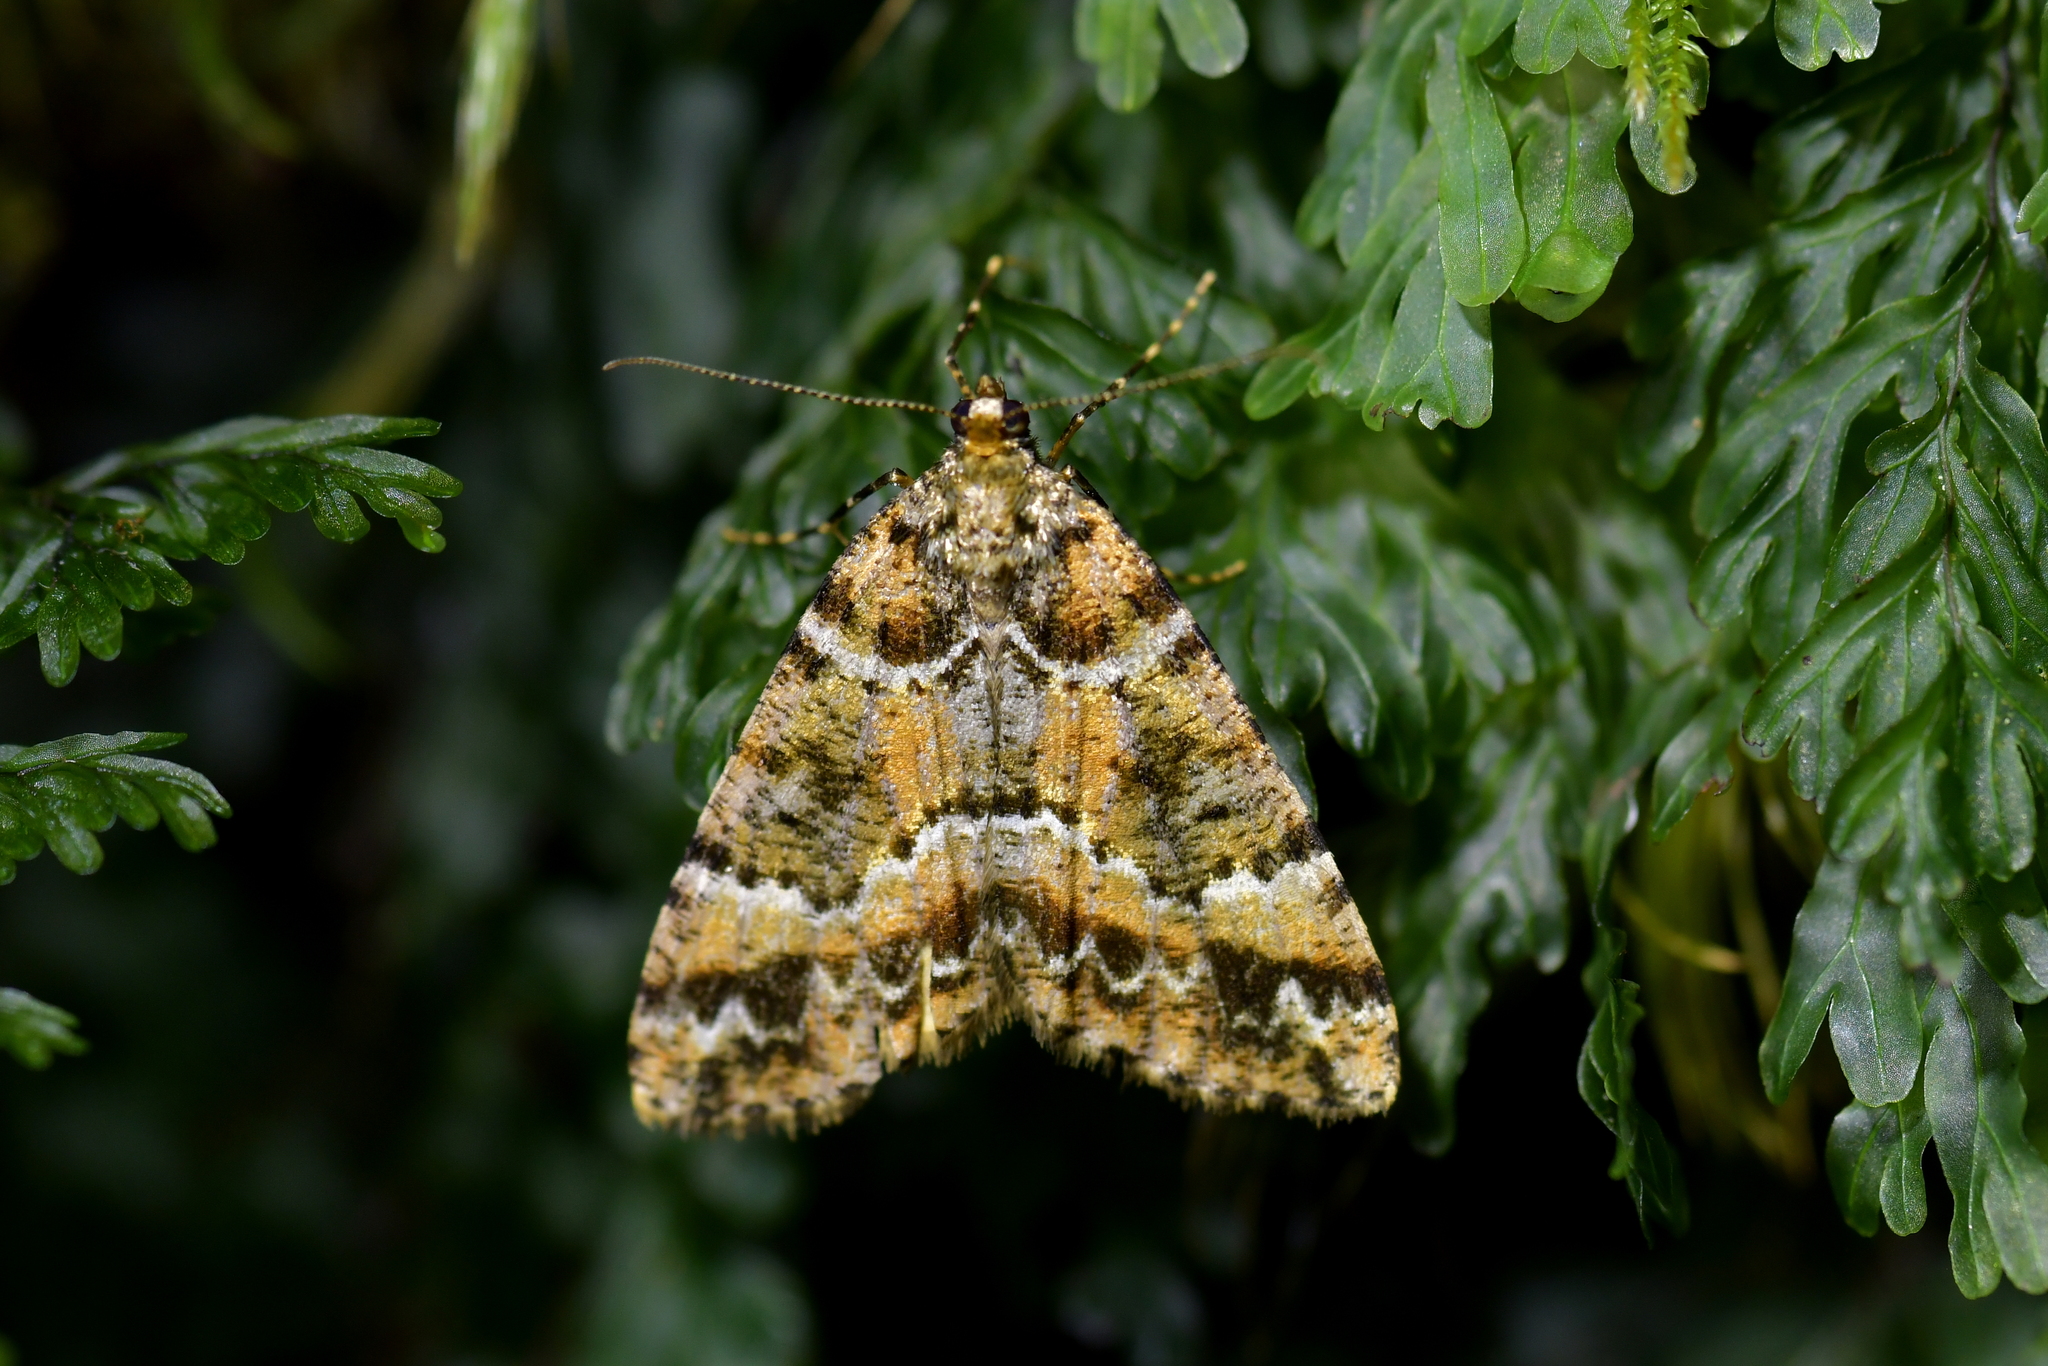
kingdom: Animalia
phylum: Arthropoda
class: Insecta
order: Lepidoptera
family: Geometridae
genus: Pseudocoremia
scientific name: Pseudocoremia productata
